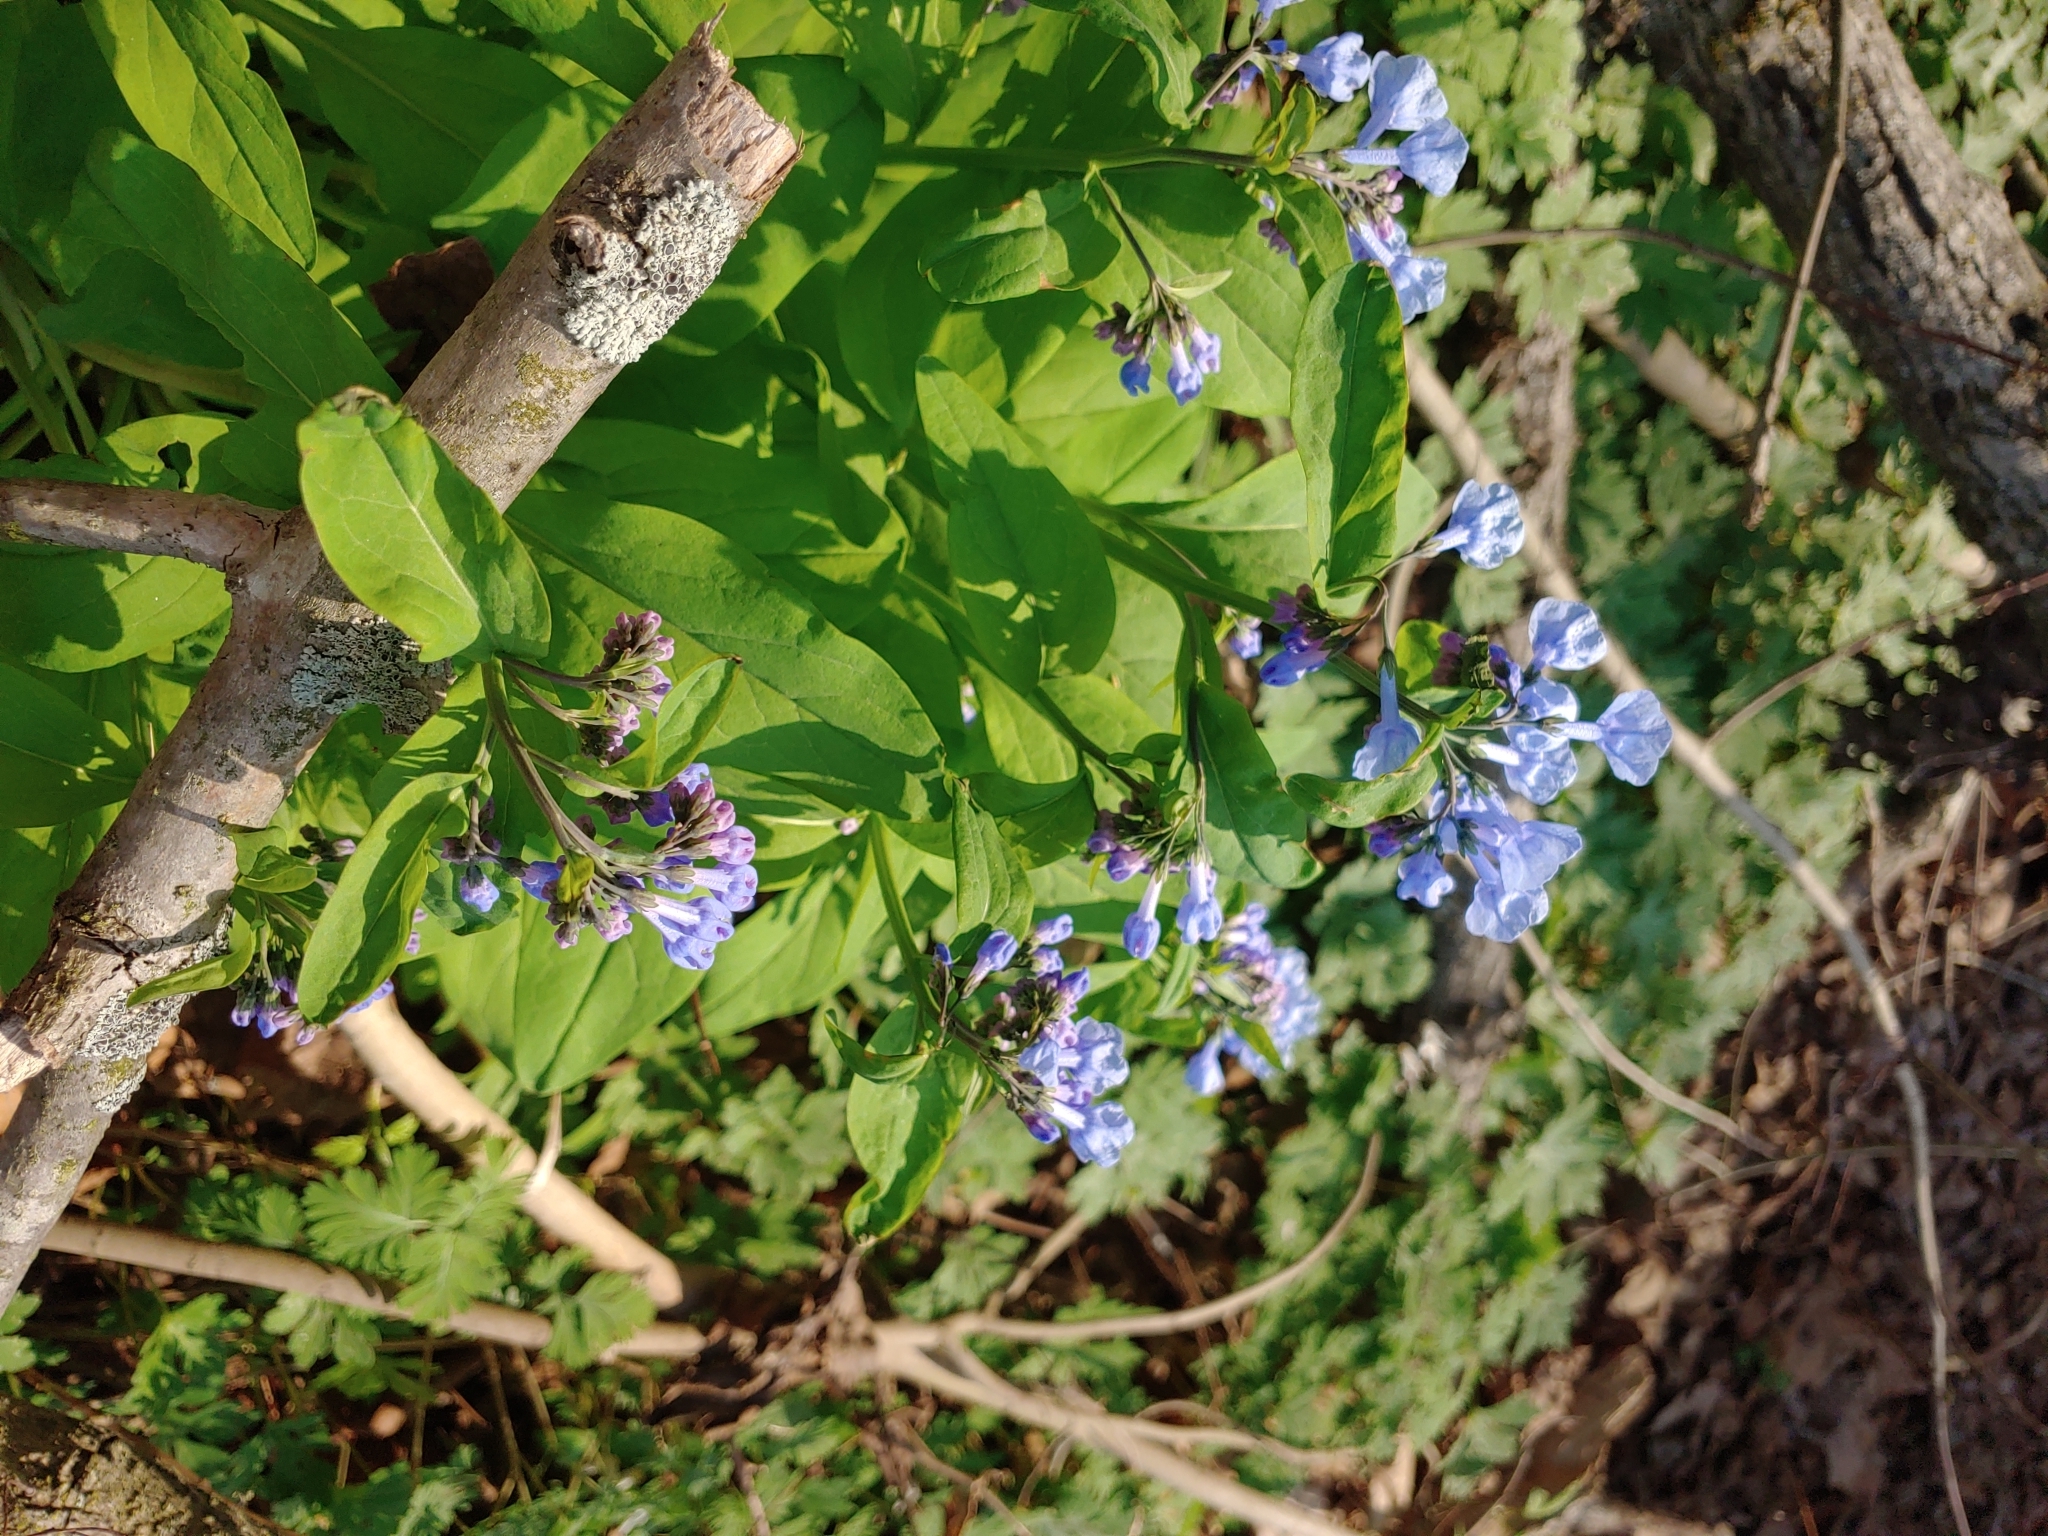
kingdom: Plantae
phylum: Tracheophyta
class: Magnoliopsida
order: Boraginales
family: Boraginaceae
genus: Mertensia
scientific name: Mertensia virginica
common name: Virginia bluebells
